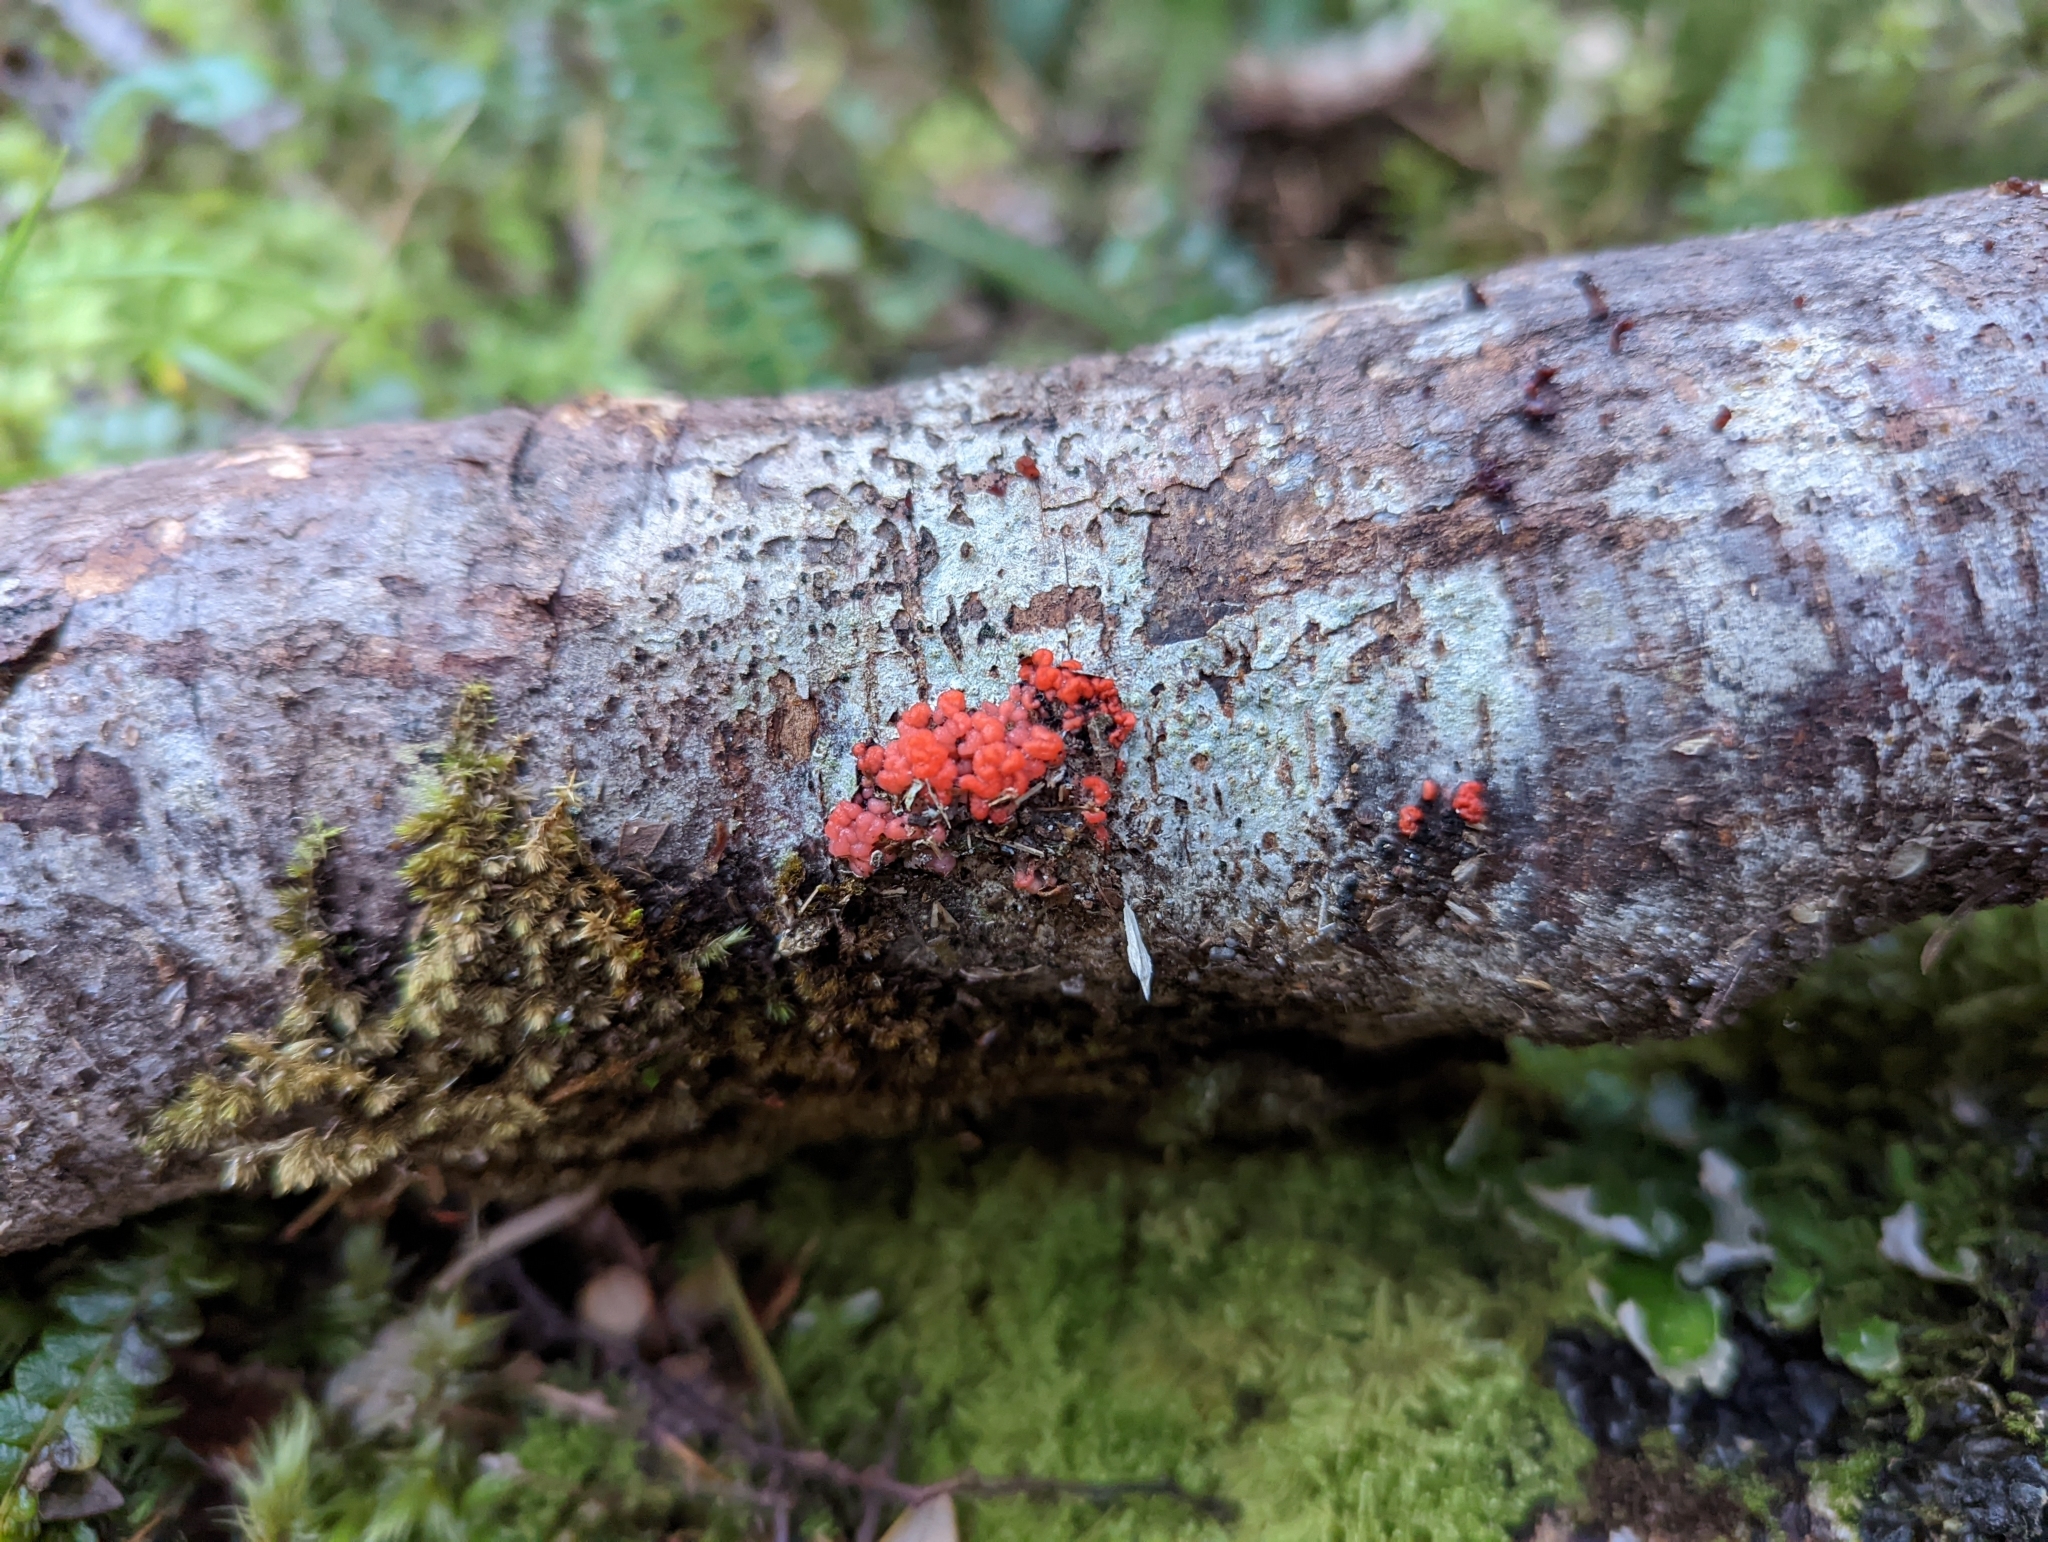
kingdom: Fungi
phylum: Basidiomycota
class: Agaricostilbomycetes
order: Agaricostilbales
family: Chionosphaeraceae
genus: Mycogloea
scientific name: Mycogloea macrospora
